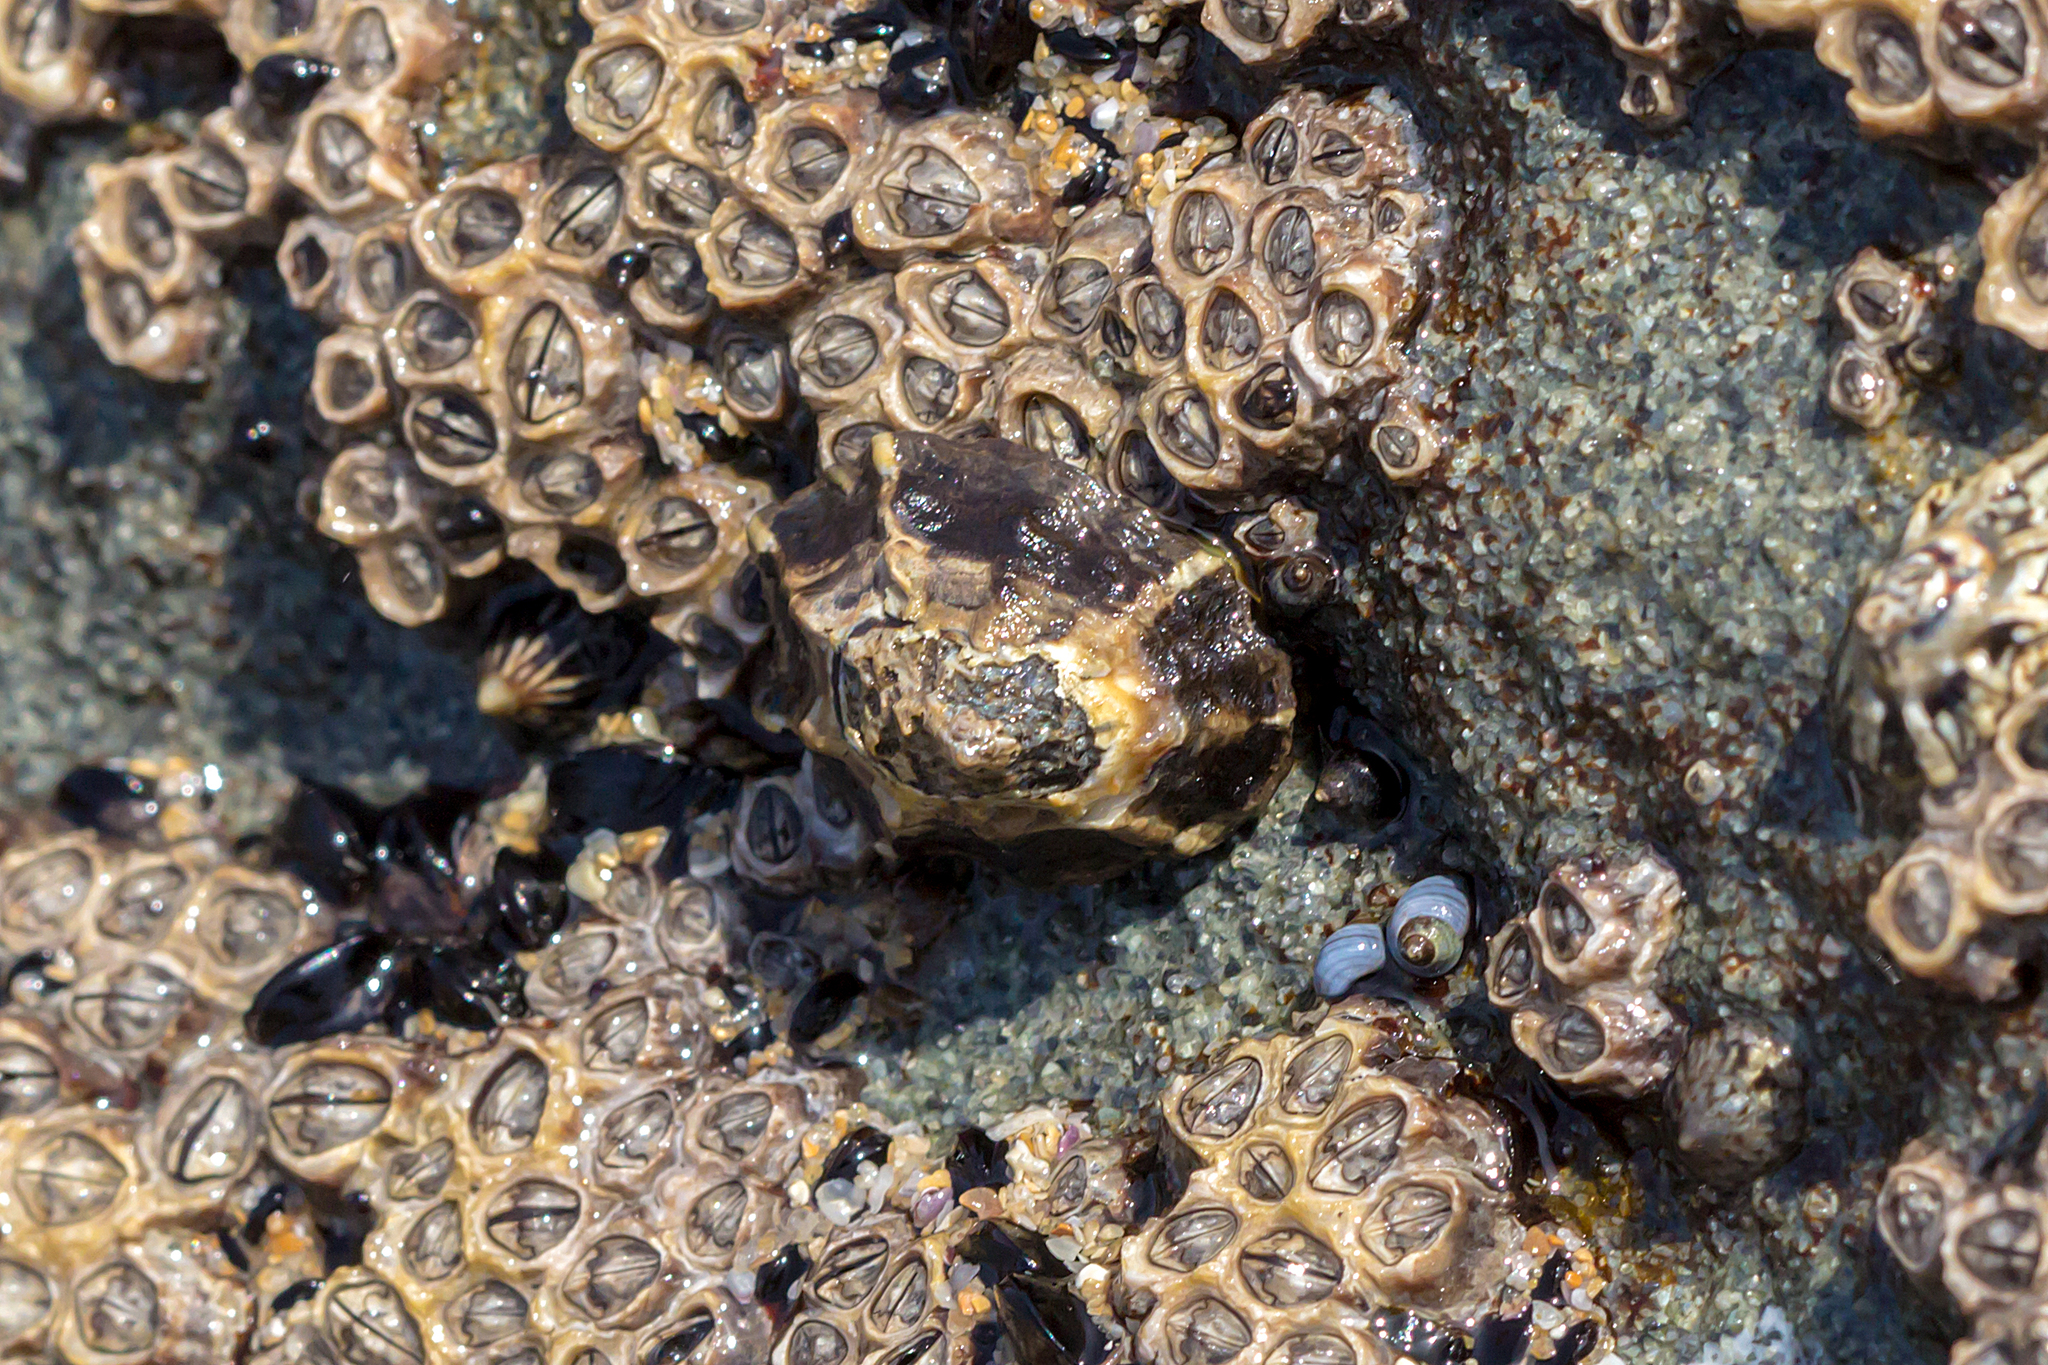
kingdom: Animalia
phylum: Mollusca
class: Gastropoda
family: Lottiidae
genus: Patelloida
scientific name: Patelloida latistrigata
